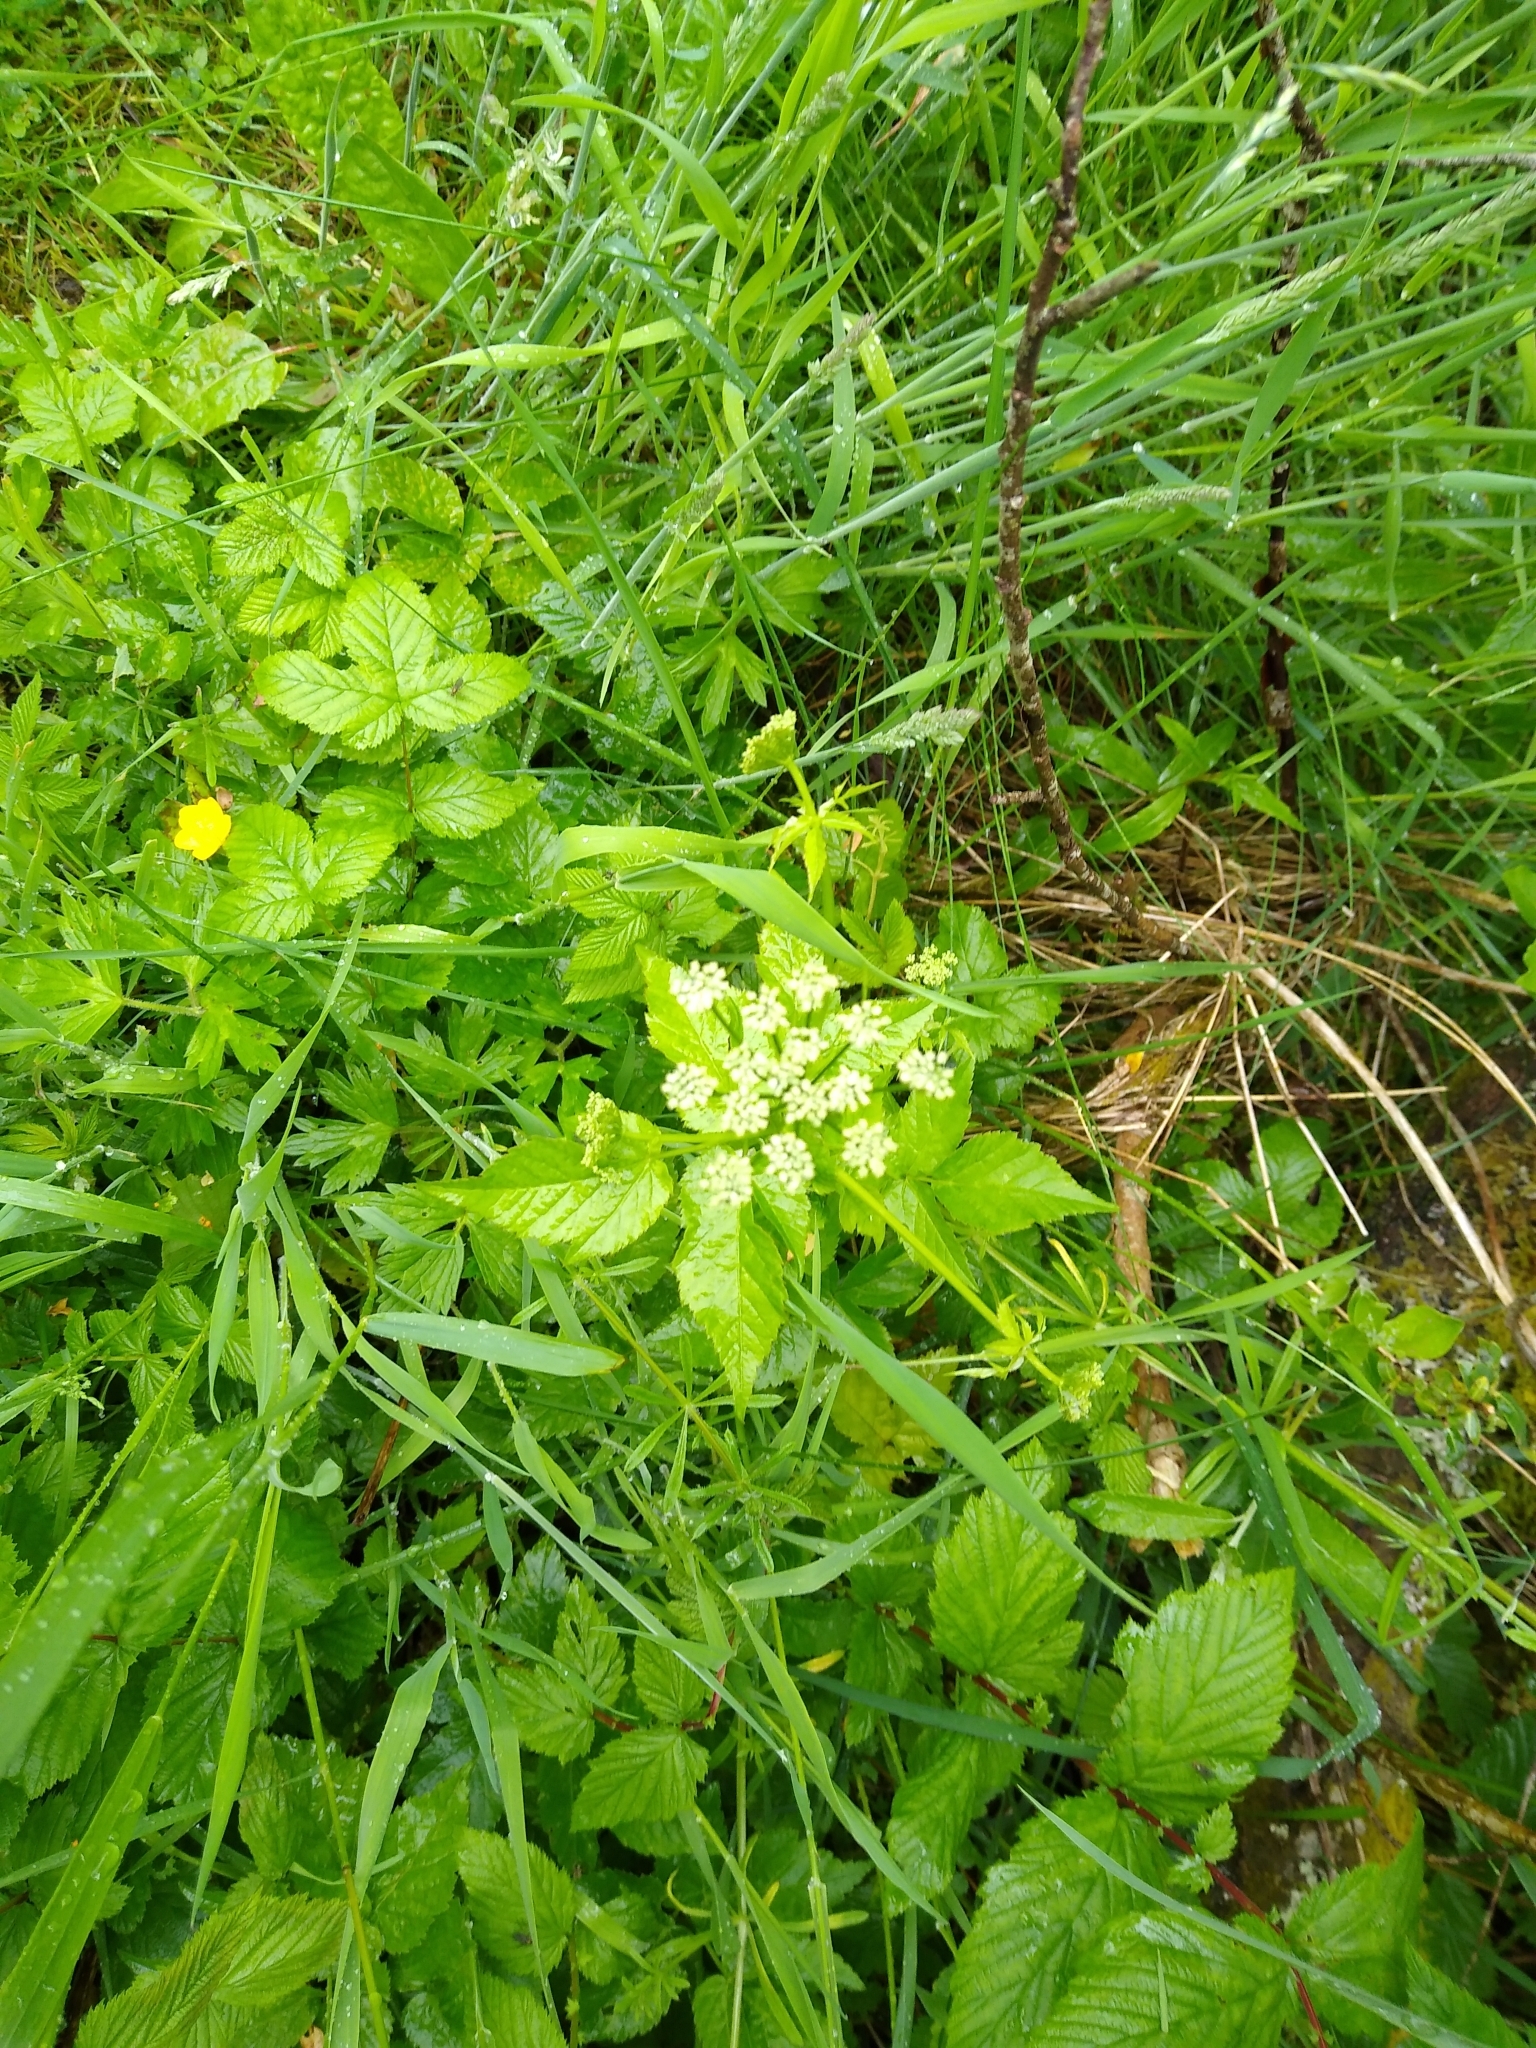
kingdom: Plantae
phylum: Tracheophyta
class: Magnoliopsida
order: Apiales
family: Apiaceae
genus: Aegopodium
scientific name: Aegopodium podagraria
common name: Ground-elder
